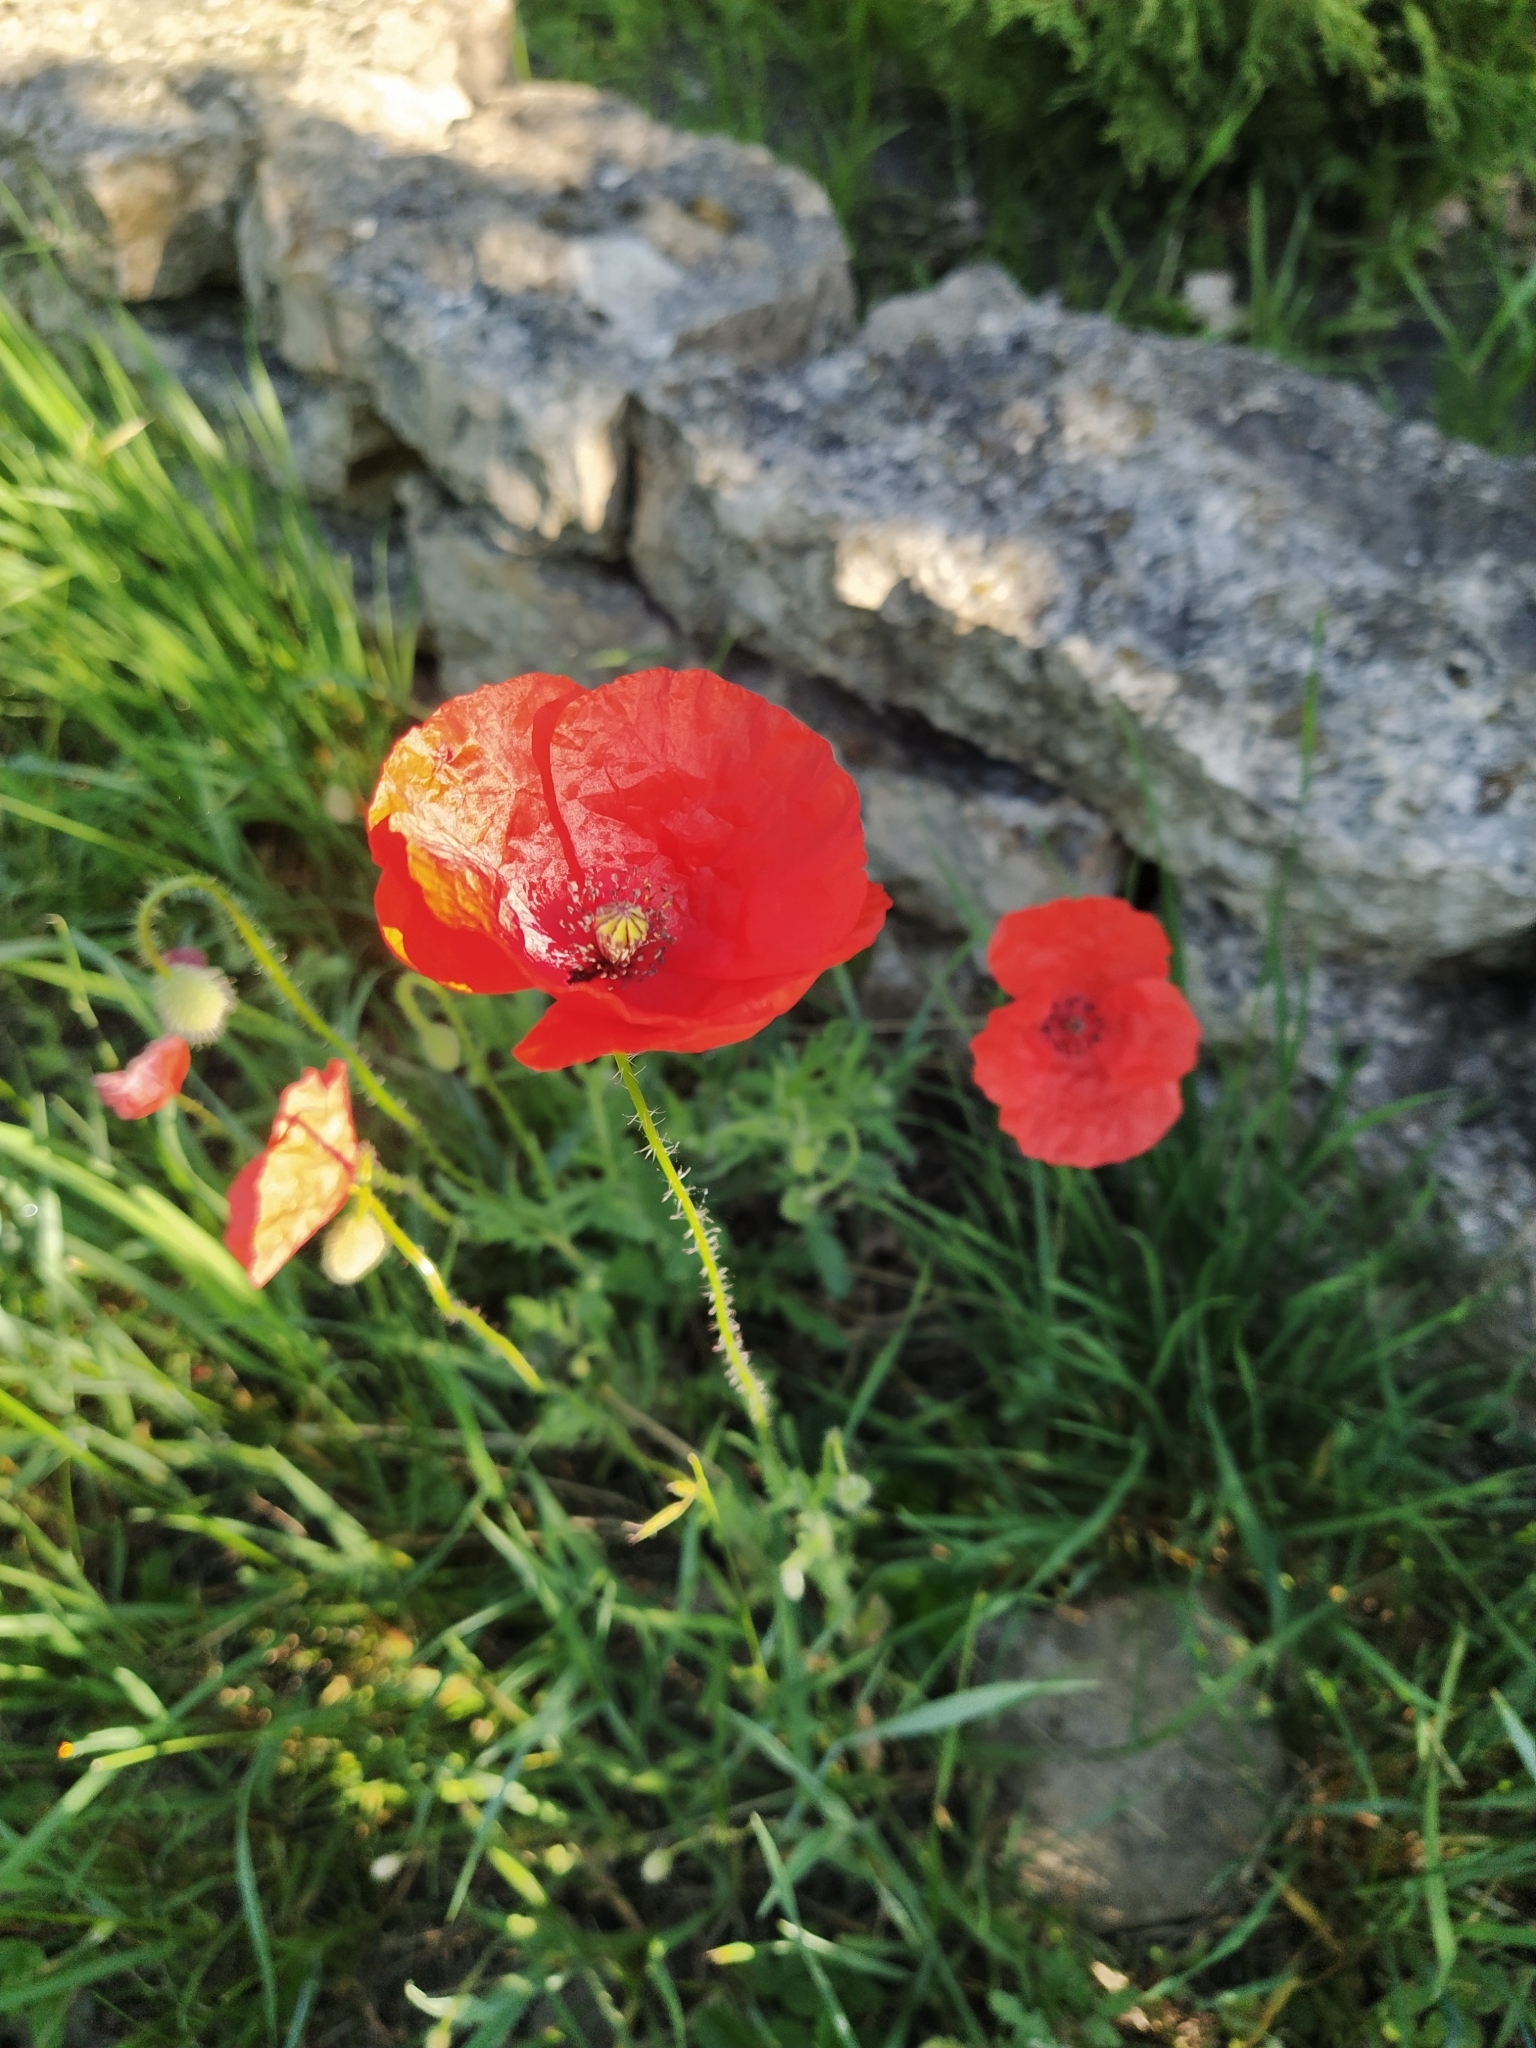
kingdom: Plantae
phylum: Tracheophyta
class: Magnoliopsida
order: Ranunculales
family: Papaveraceae
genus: Papaver
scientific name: Papaver rhoeas
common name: Corn poppy
